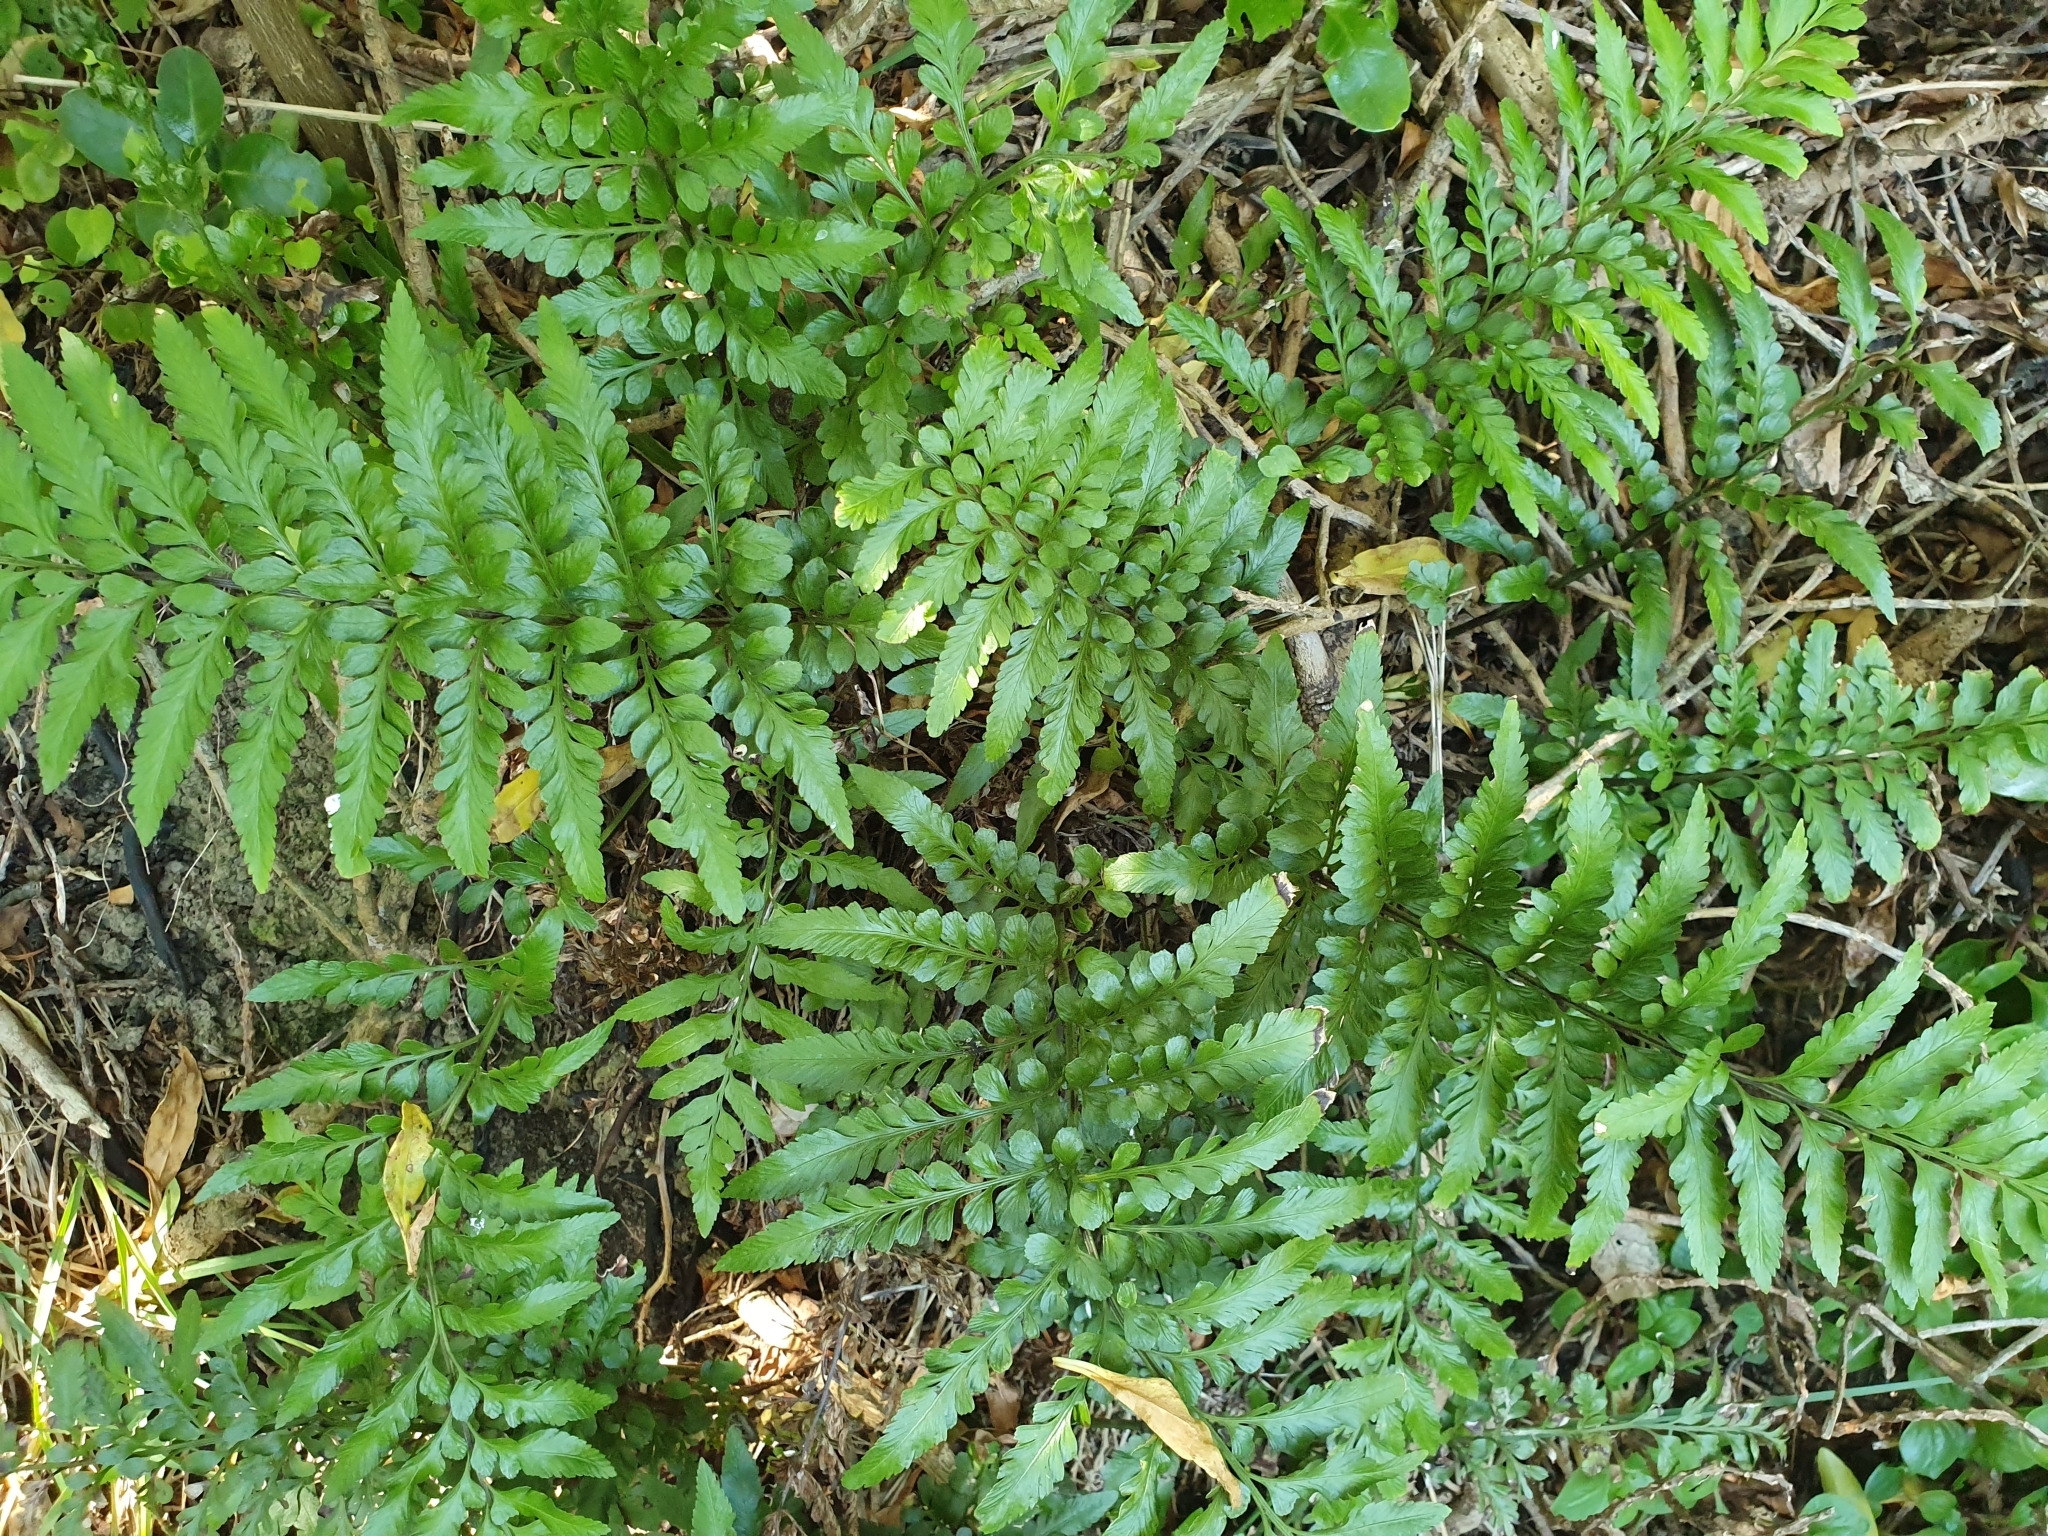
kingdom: Plantae
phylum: Tracheophyta
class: Polypodiopsida
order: Polypodiales
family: Aspleniaceae
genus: Asplenium
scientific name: Asplenium lyallii
